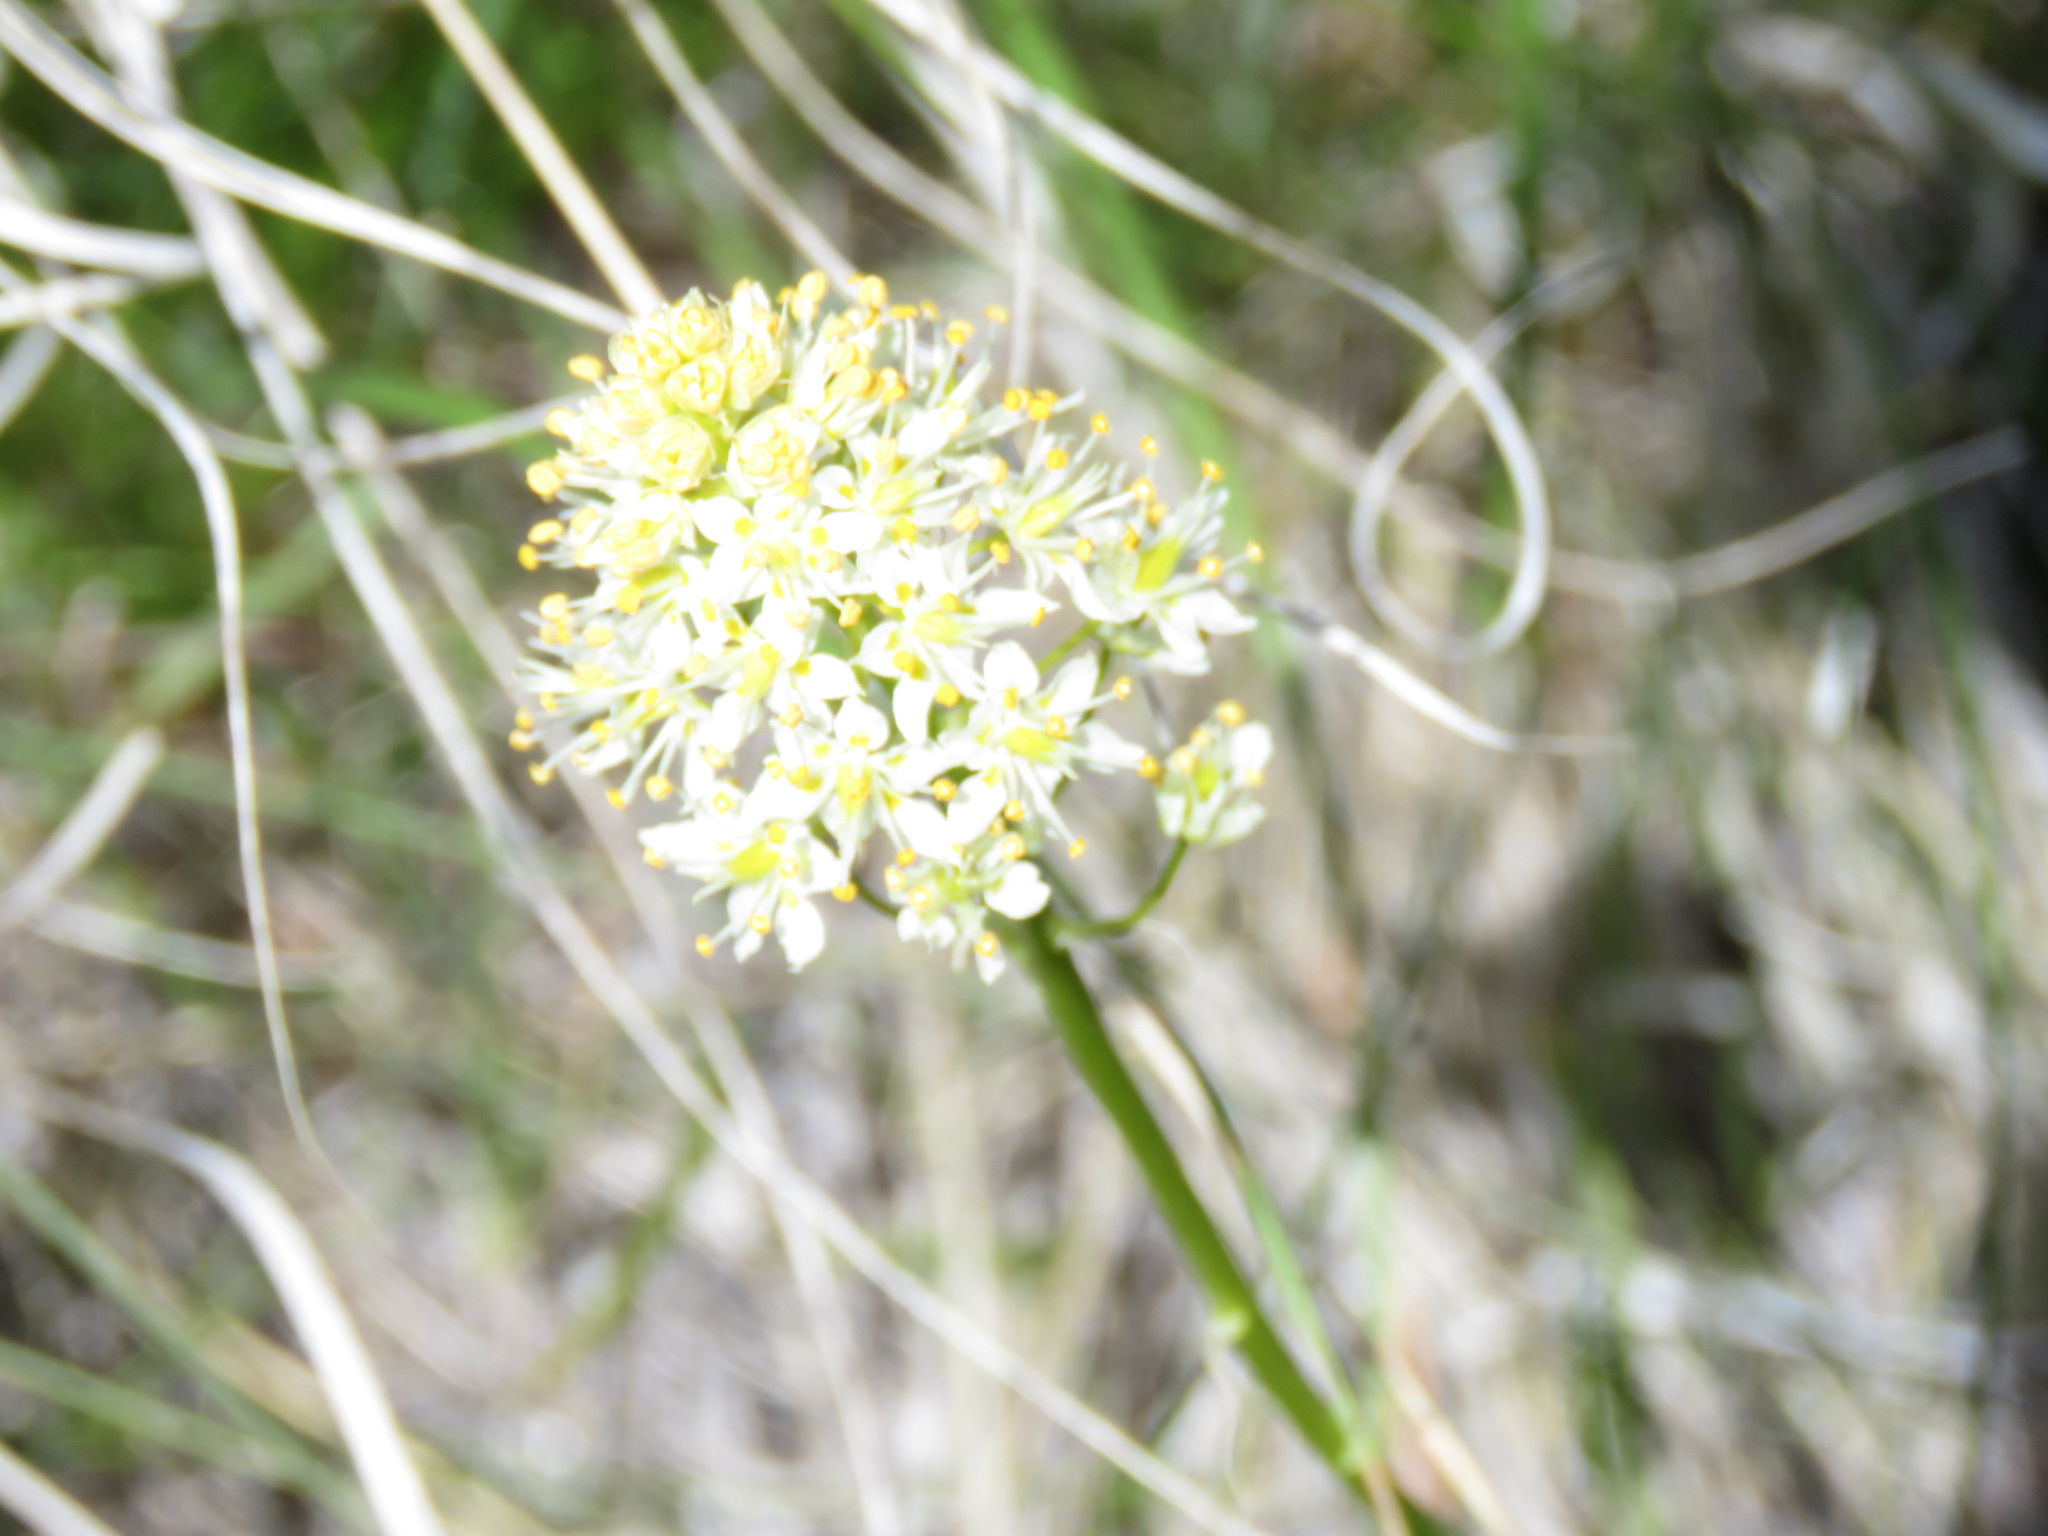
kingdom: Plantae
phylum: Tracheophyta
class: Liliopsida
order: Liliales
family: Melanthiaceae
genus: Toxicoscordion
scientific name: Toxicoscordion venenosum
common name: Meadow death camas
